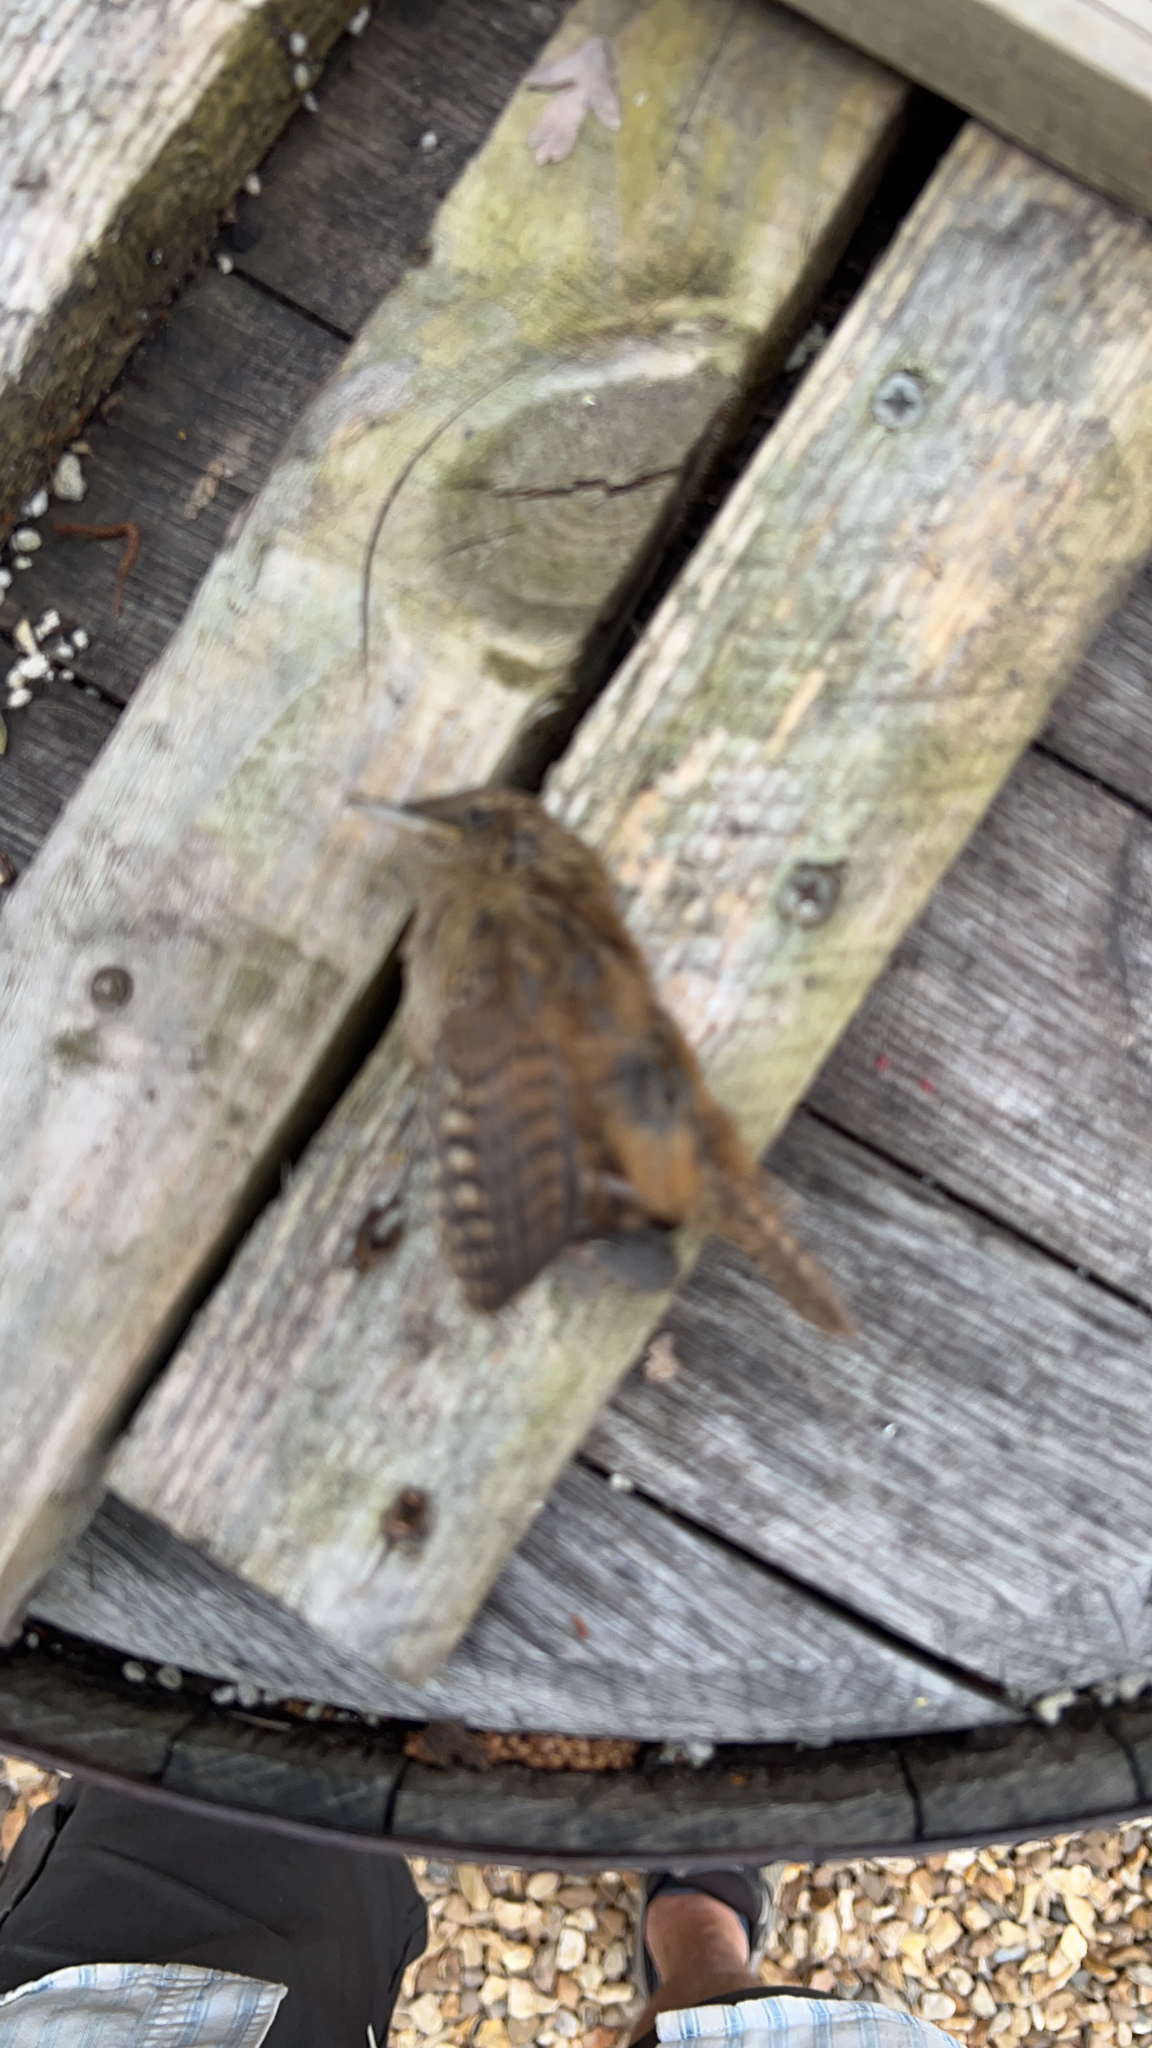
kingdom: Animalia
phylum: Chordata
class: Aves
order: Passeriformes
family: Troglodytidae
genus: Troglodytes
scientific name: Troglodytes troglodytes
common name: Eurasian wren
